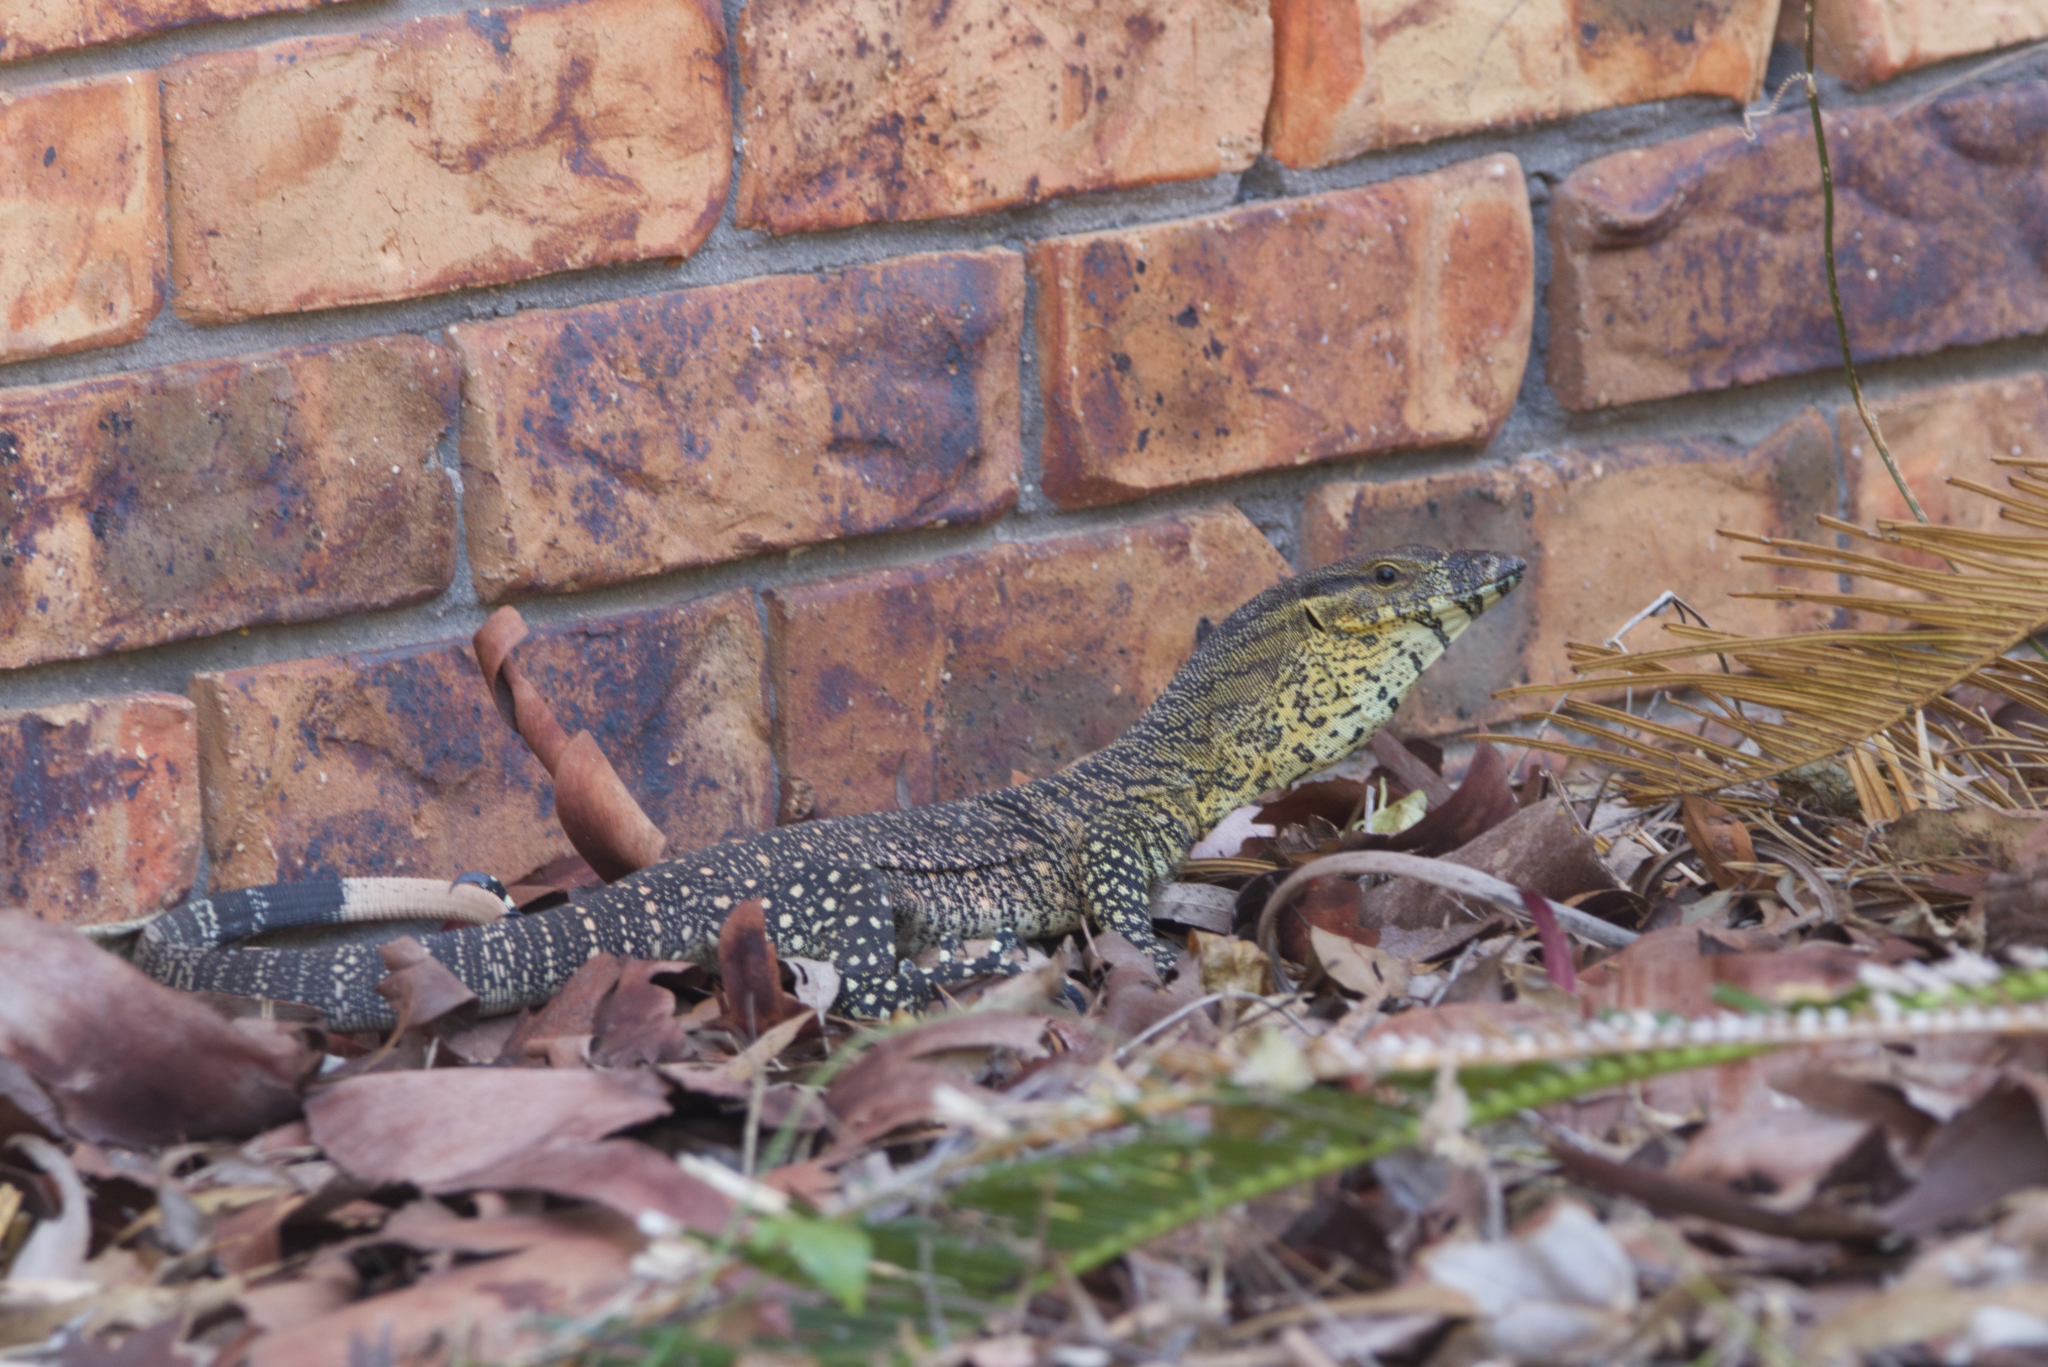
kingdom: Animalia
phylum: Chordata
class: Squamata
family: Varanidae
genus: Varanus
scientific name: Varanus varius
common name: Lace monitor
